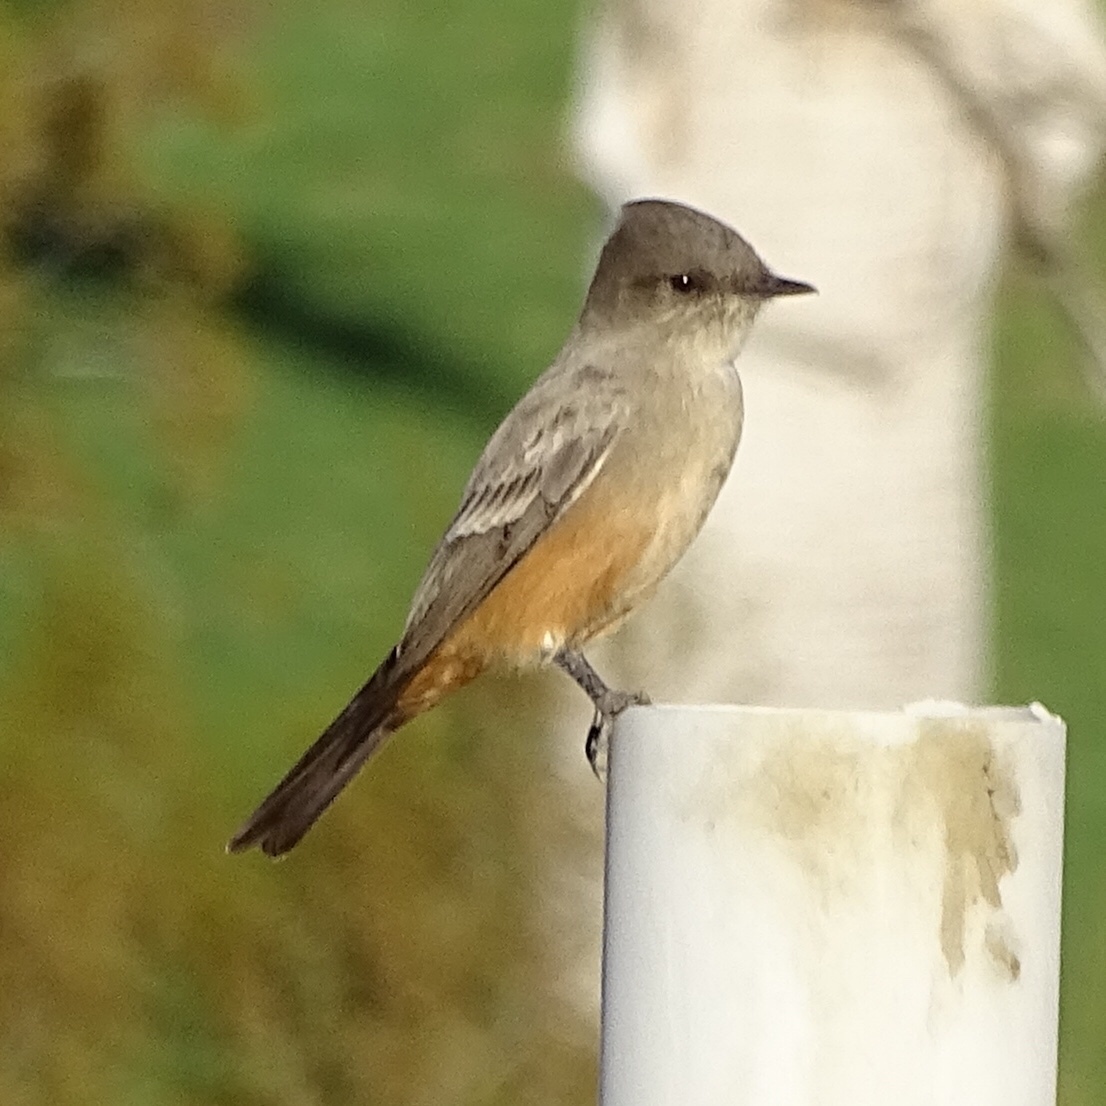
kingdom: Animalia
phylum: Chordata
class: Aves
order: Passeriformes
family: Tyrannidae
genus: Sayornis
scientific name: Sayornis saya
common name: Say's phoebe
